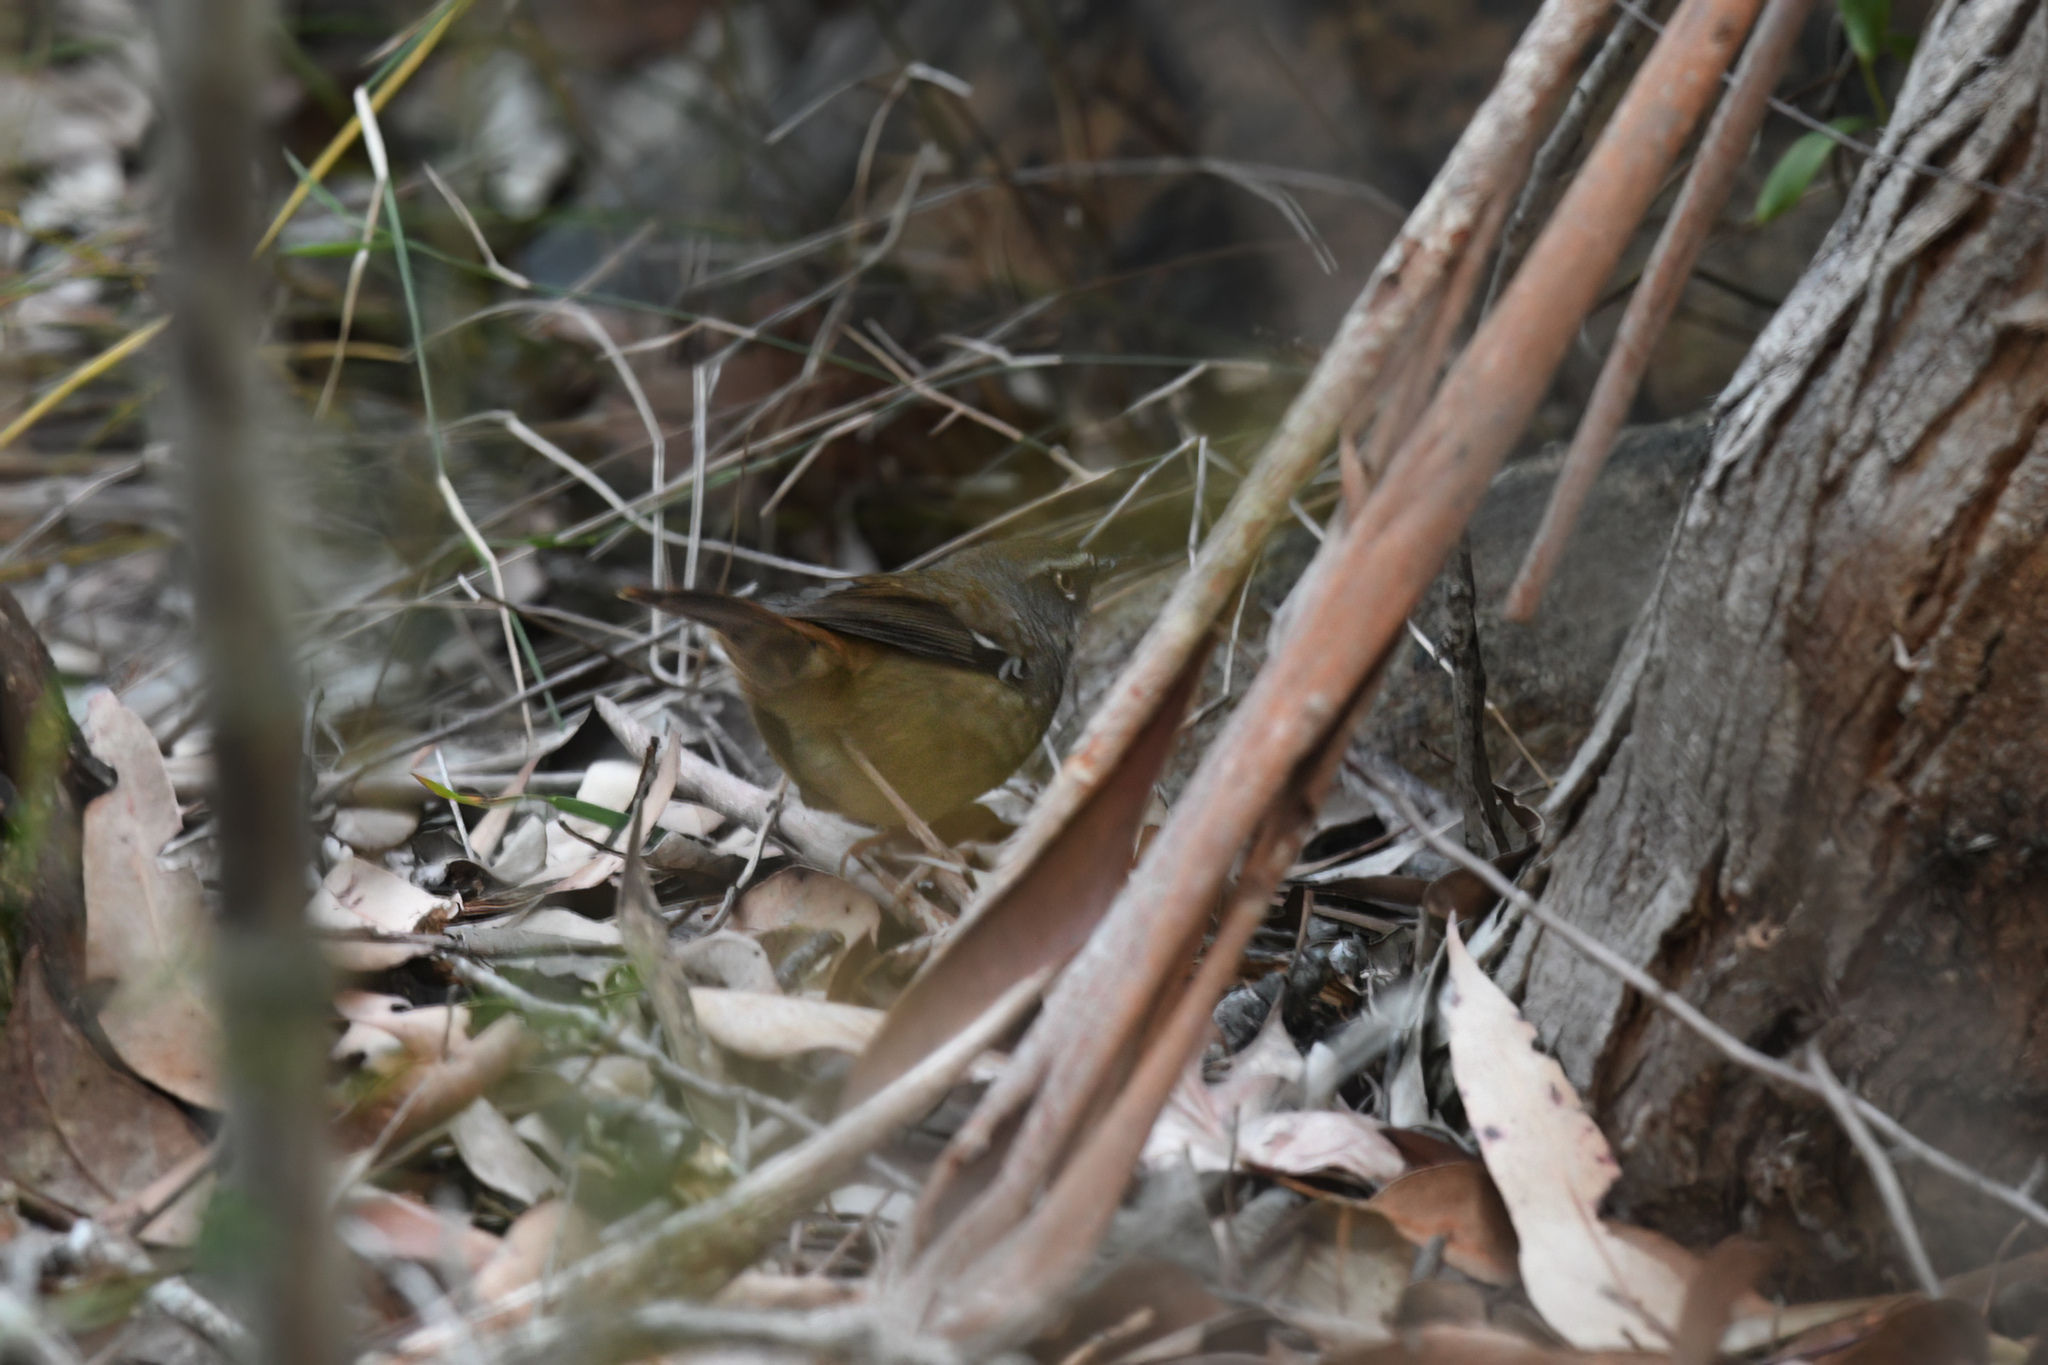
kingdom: Animalia
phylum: Chordata
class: Aves
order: Passeriformes
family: Acanthizidae
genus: Sericornis
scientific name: Sericornis frontalis
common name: White-browed scrubwren
